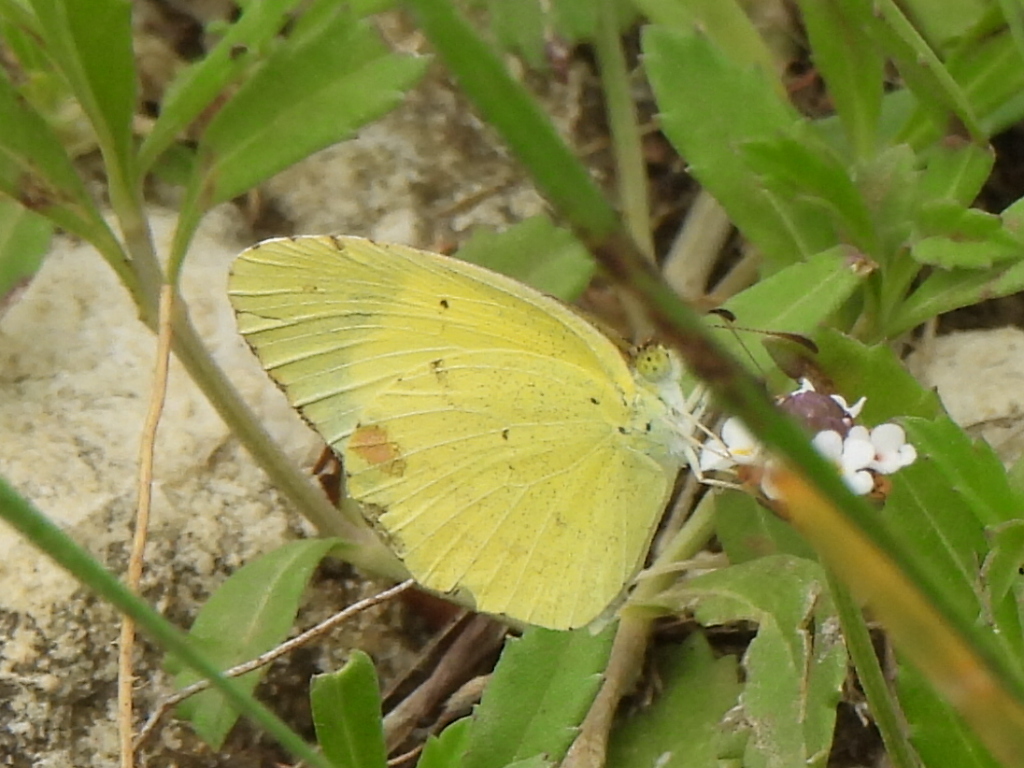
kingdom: Animalia
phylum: Arthropoda
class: Insecta
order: Lepidoptera
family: Pieridae
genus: Pyrisitia
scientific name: Pyrisitia lisa
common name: Little yellow
